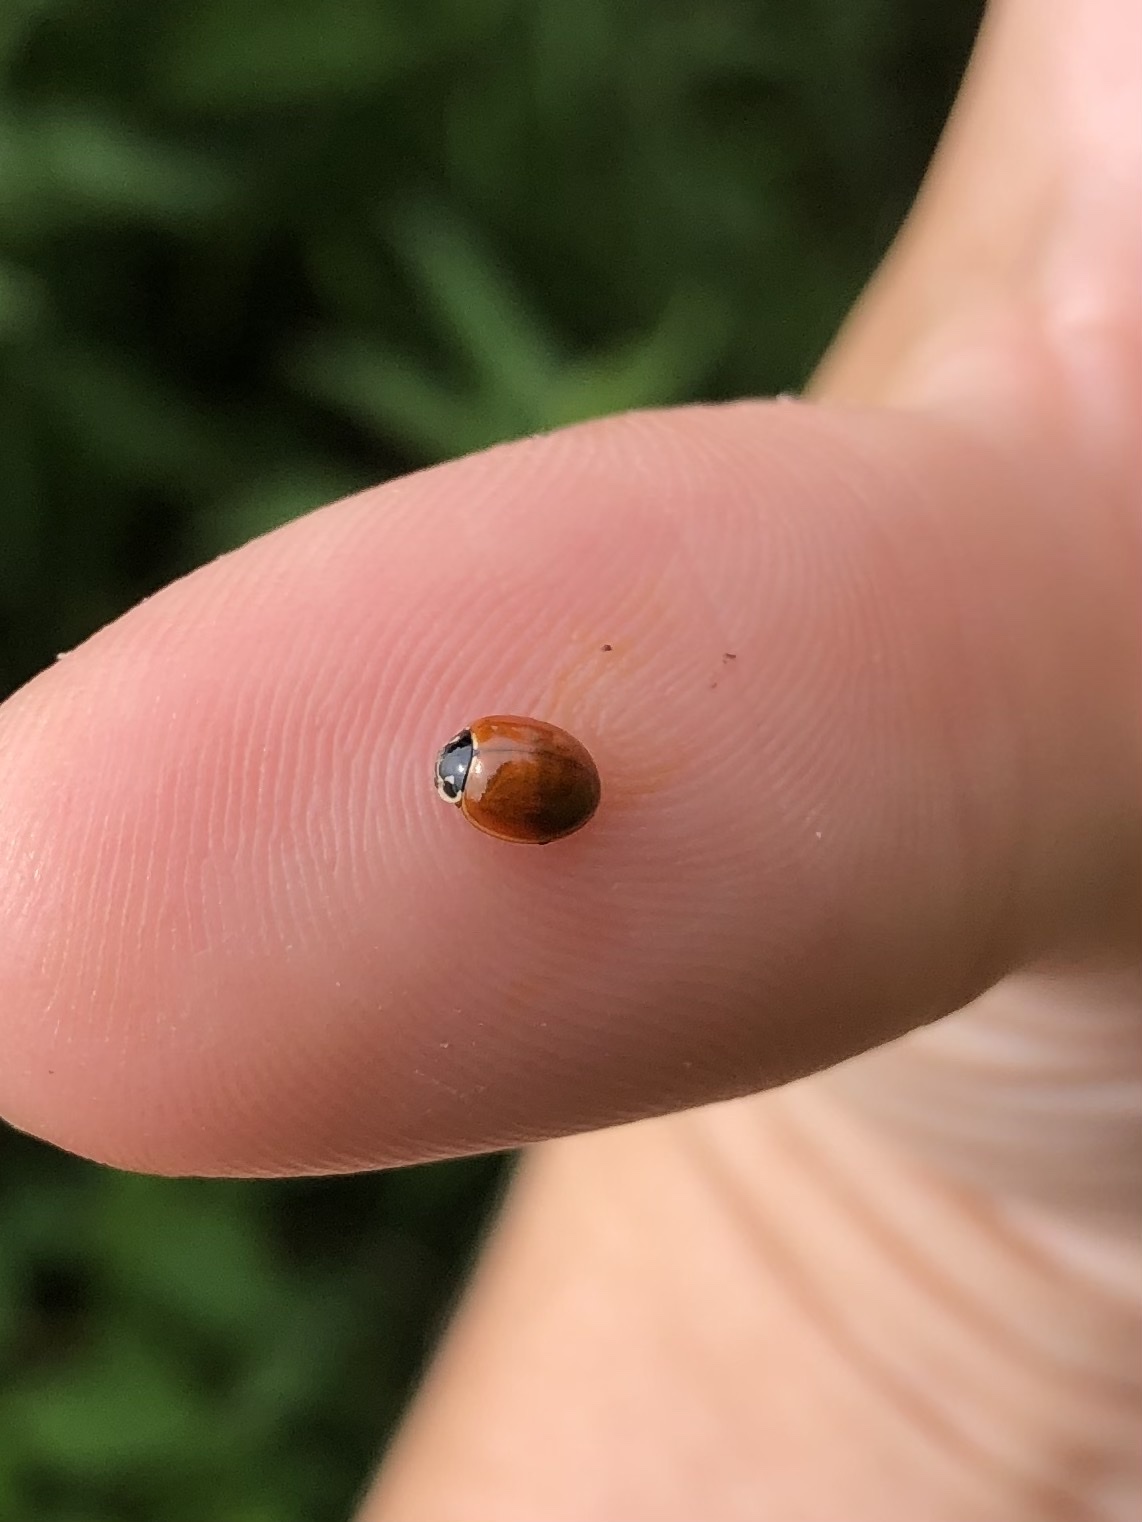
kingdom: Animalia
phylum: Arthropoda
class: Insecta
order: Coleoptera
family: Coccinellidae
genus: Cycloneda
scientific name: Cycloneda munda
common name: Polished lady beetle
